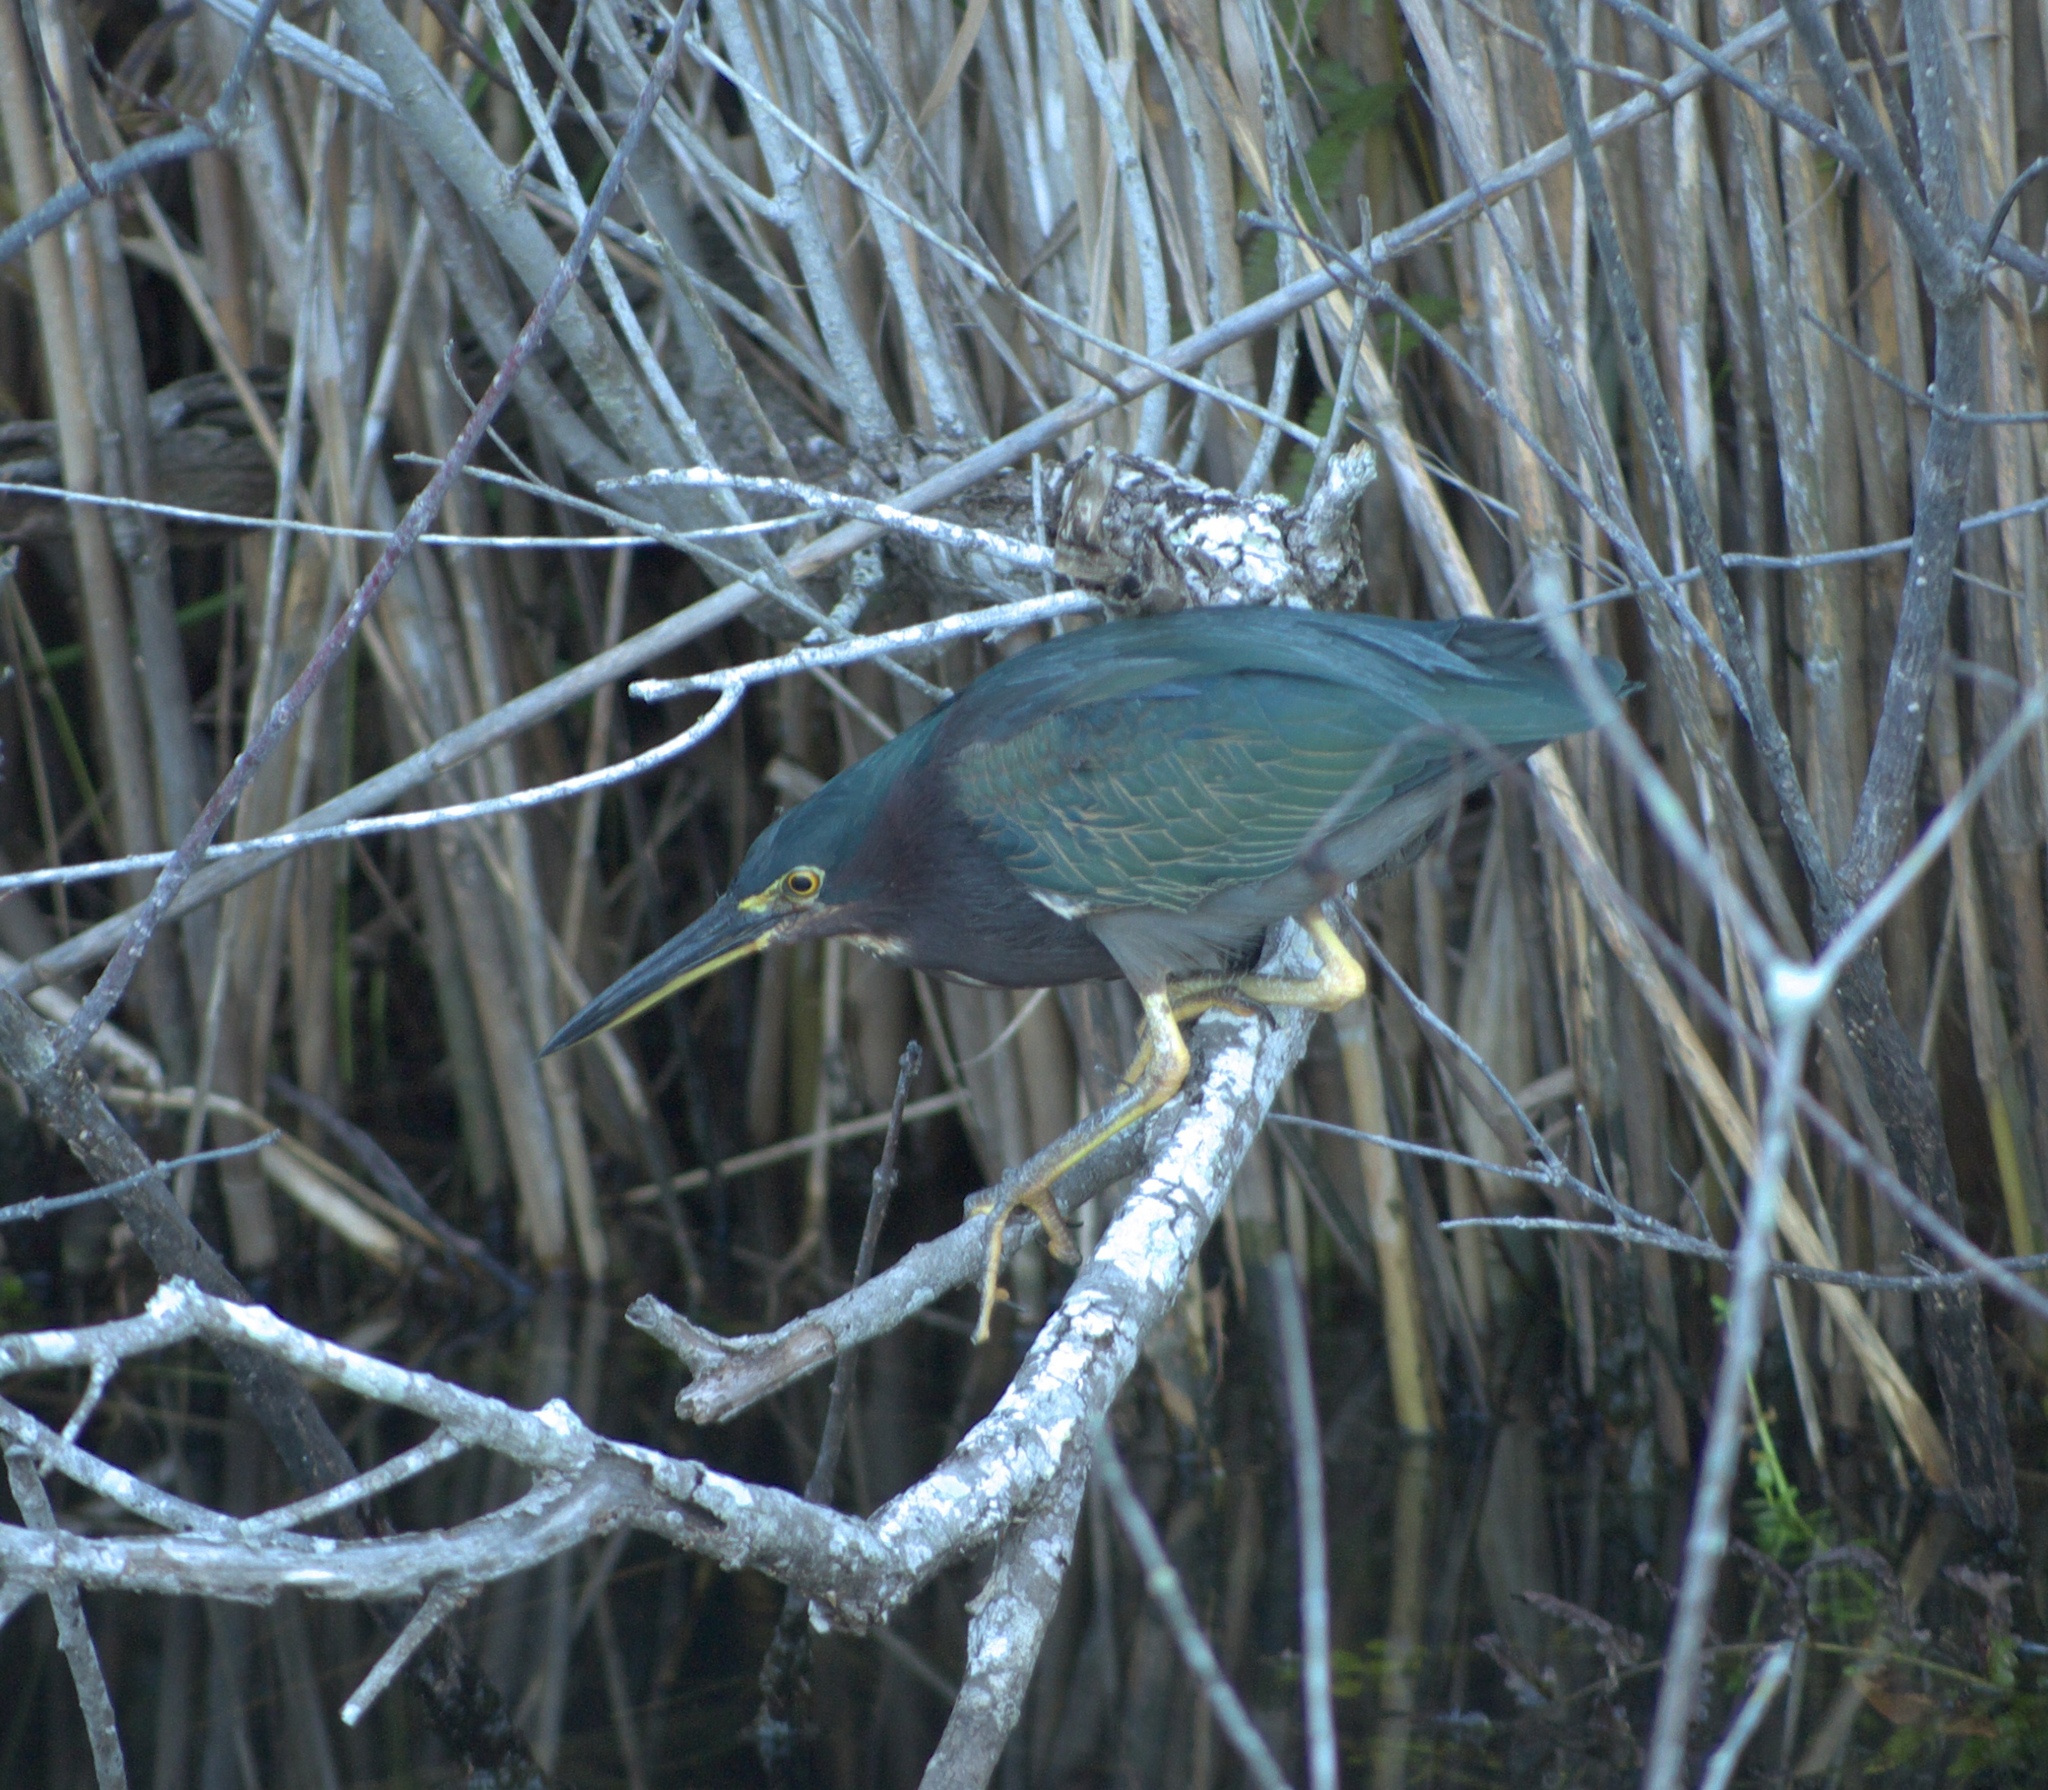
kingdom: Animalia
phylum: Chordata
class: Aves
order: Pelecaniformes
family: Ardeidae
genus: Butorides
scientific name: Butorides virescens
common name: Green heron
